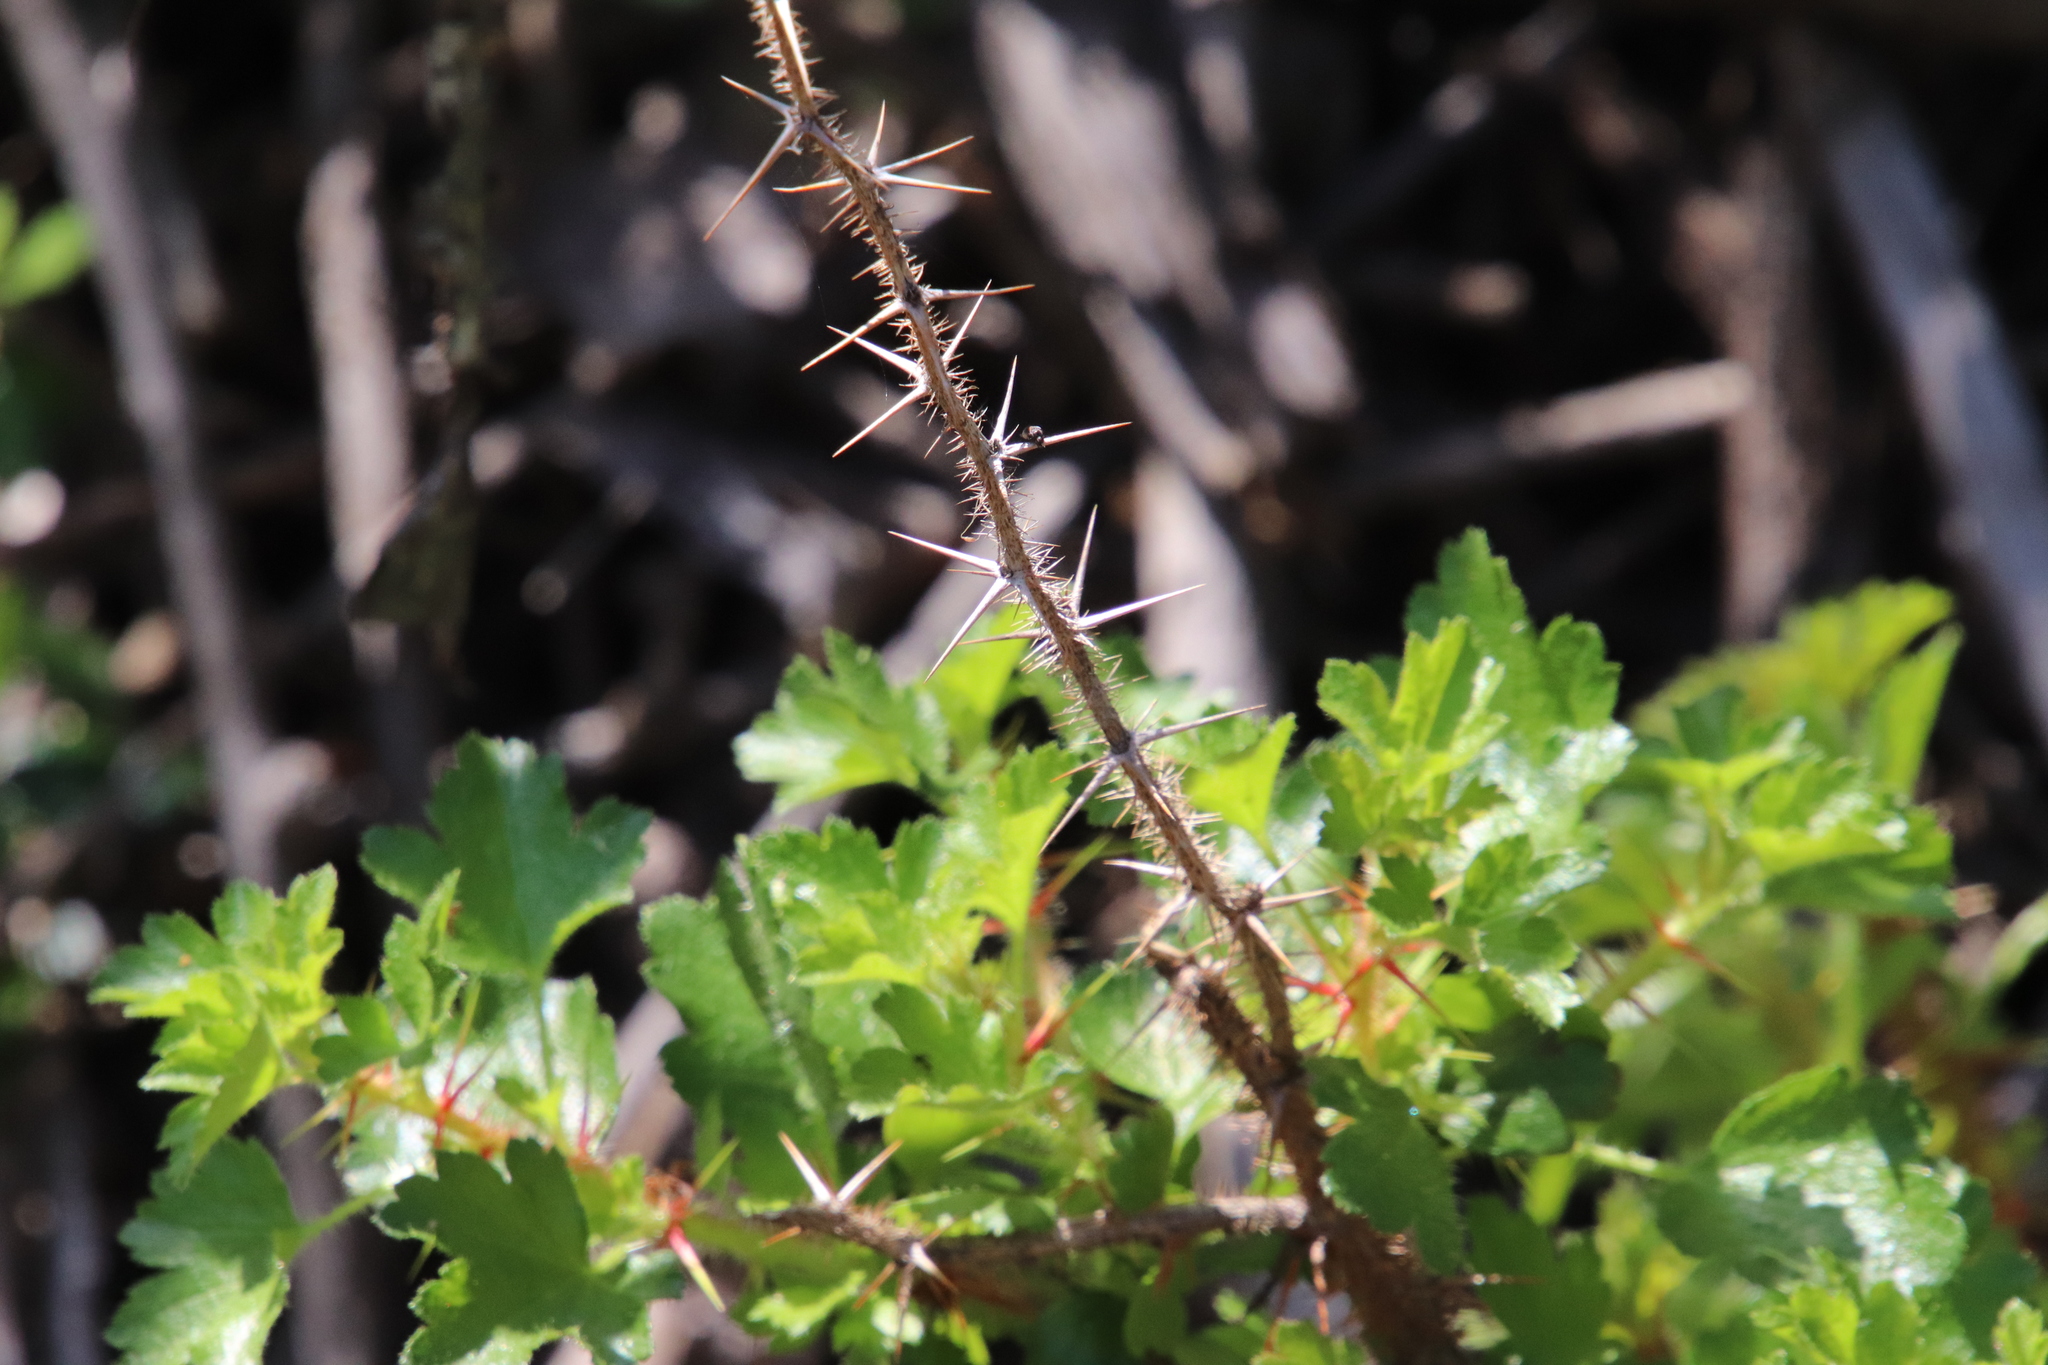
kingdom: Plantae
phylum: Tracheophyta
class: Magnoliopsida
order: Saxifragales
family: Grossulariaceae
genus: Ribes
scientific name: Ribes speciosum
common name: Fuchsia-flower gooseberry
